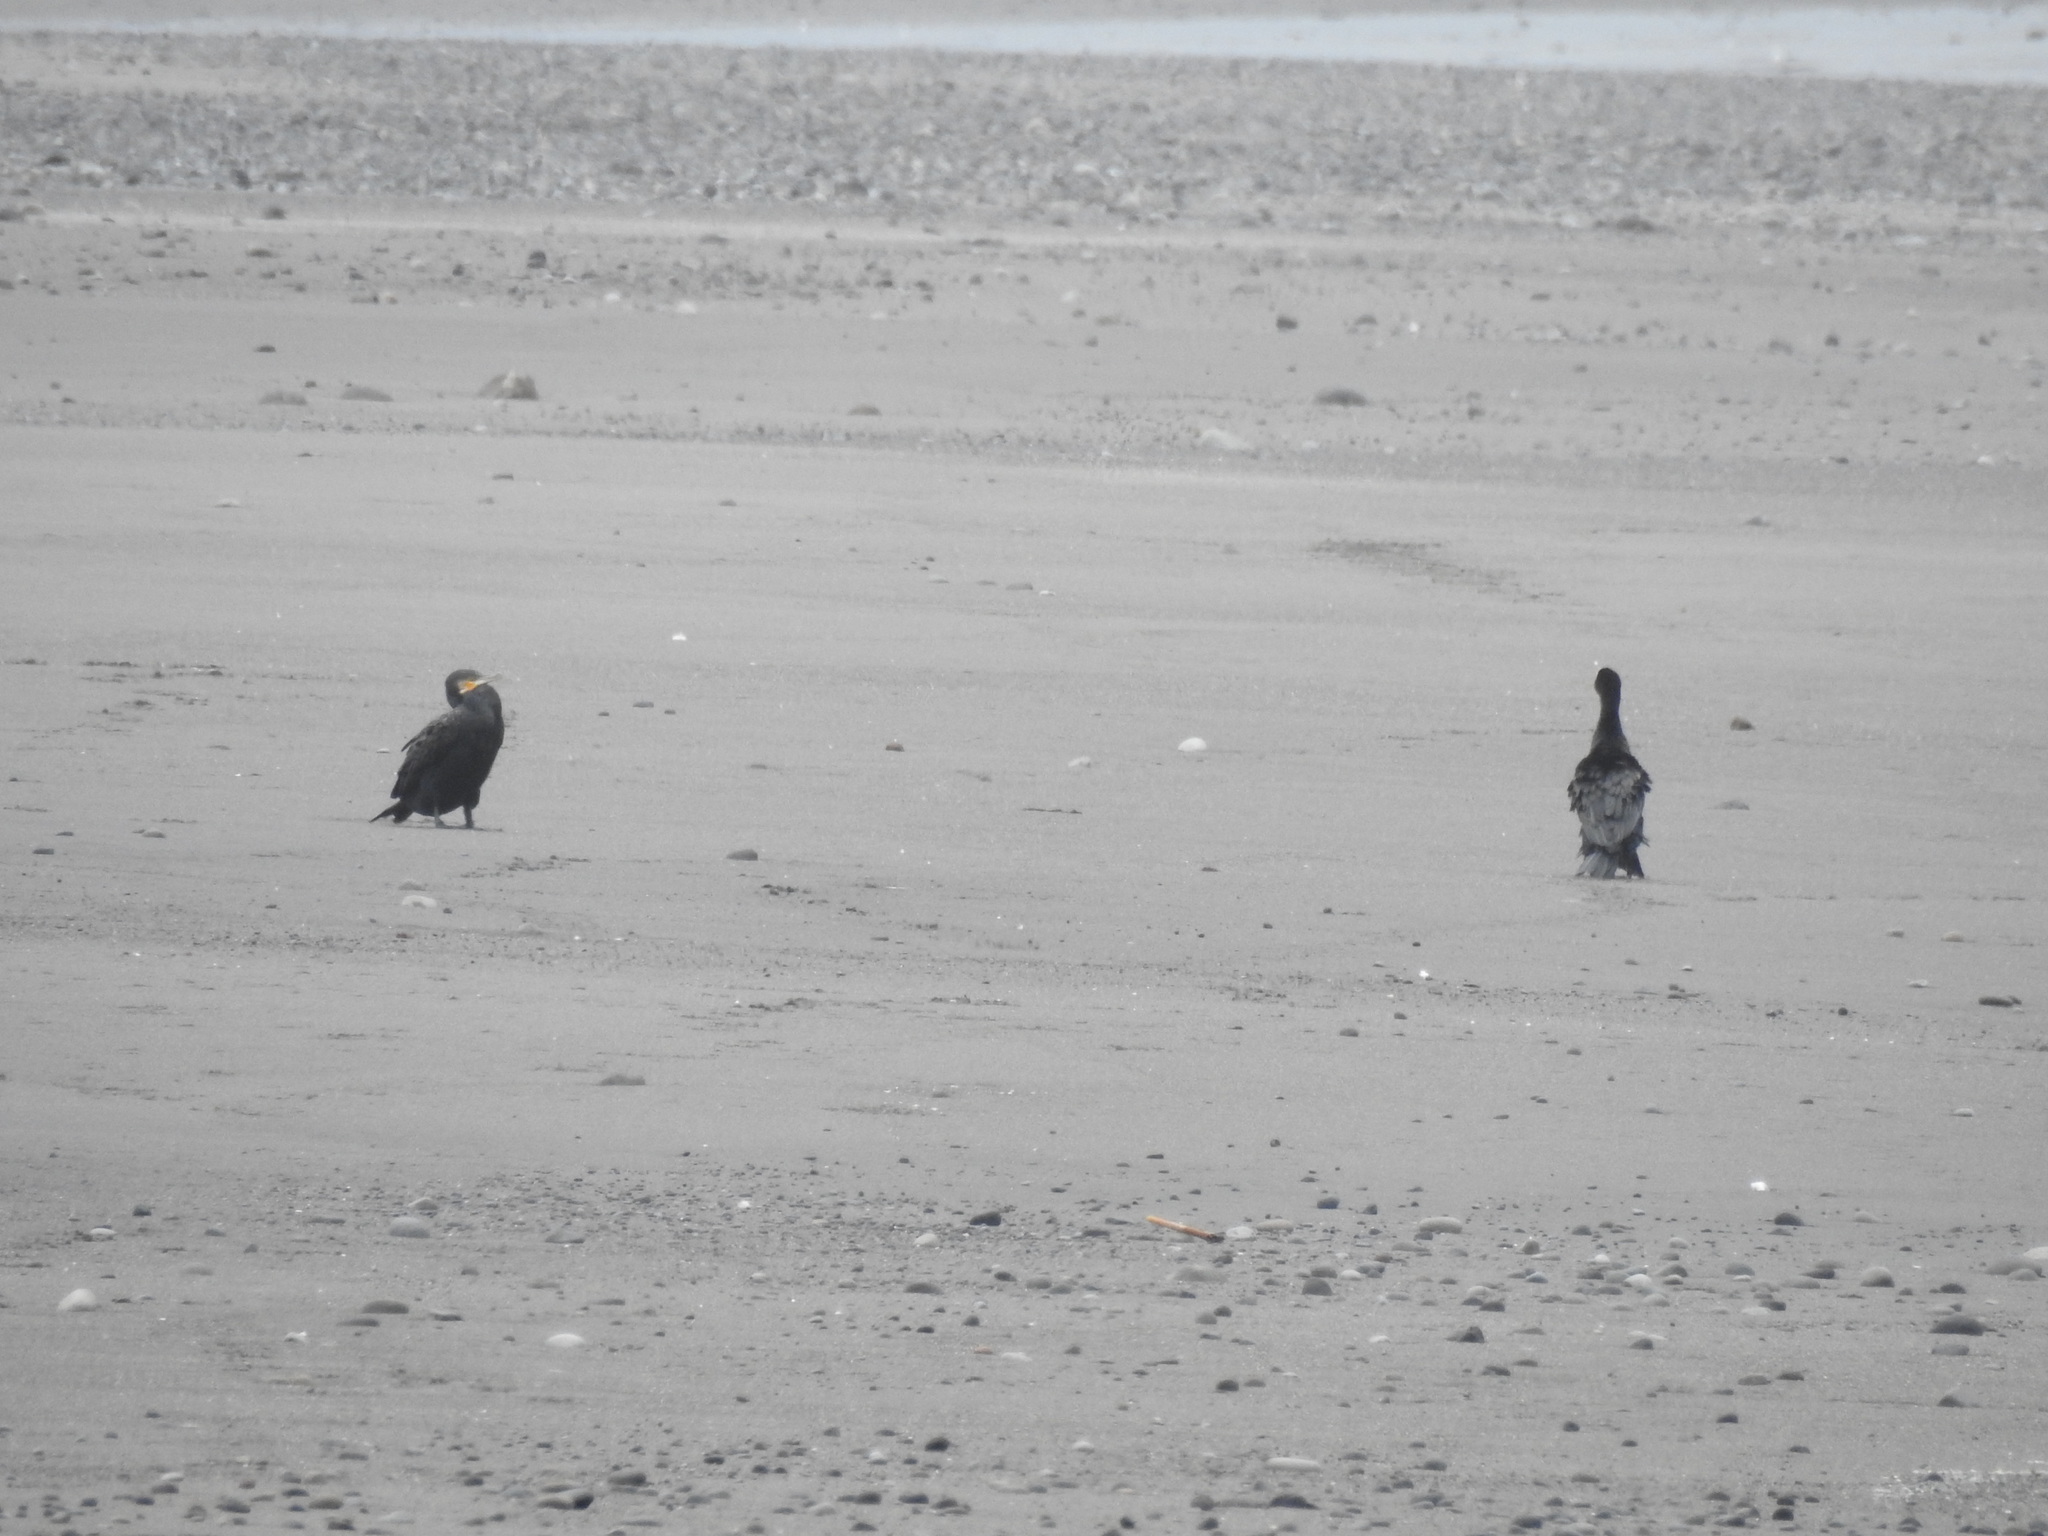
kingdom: Animalia
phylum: Chordata
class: Aves
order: Suliformes
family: Phalacrocoracidae
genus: Phalacrocorax
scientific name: Phalacrocorax carbo
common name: Great cormorant
